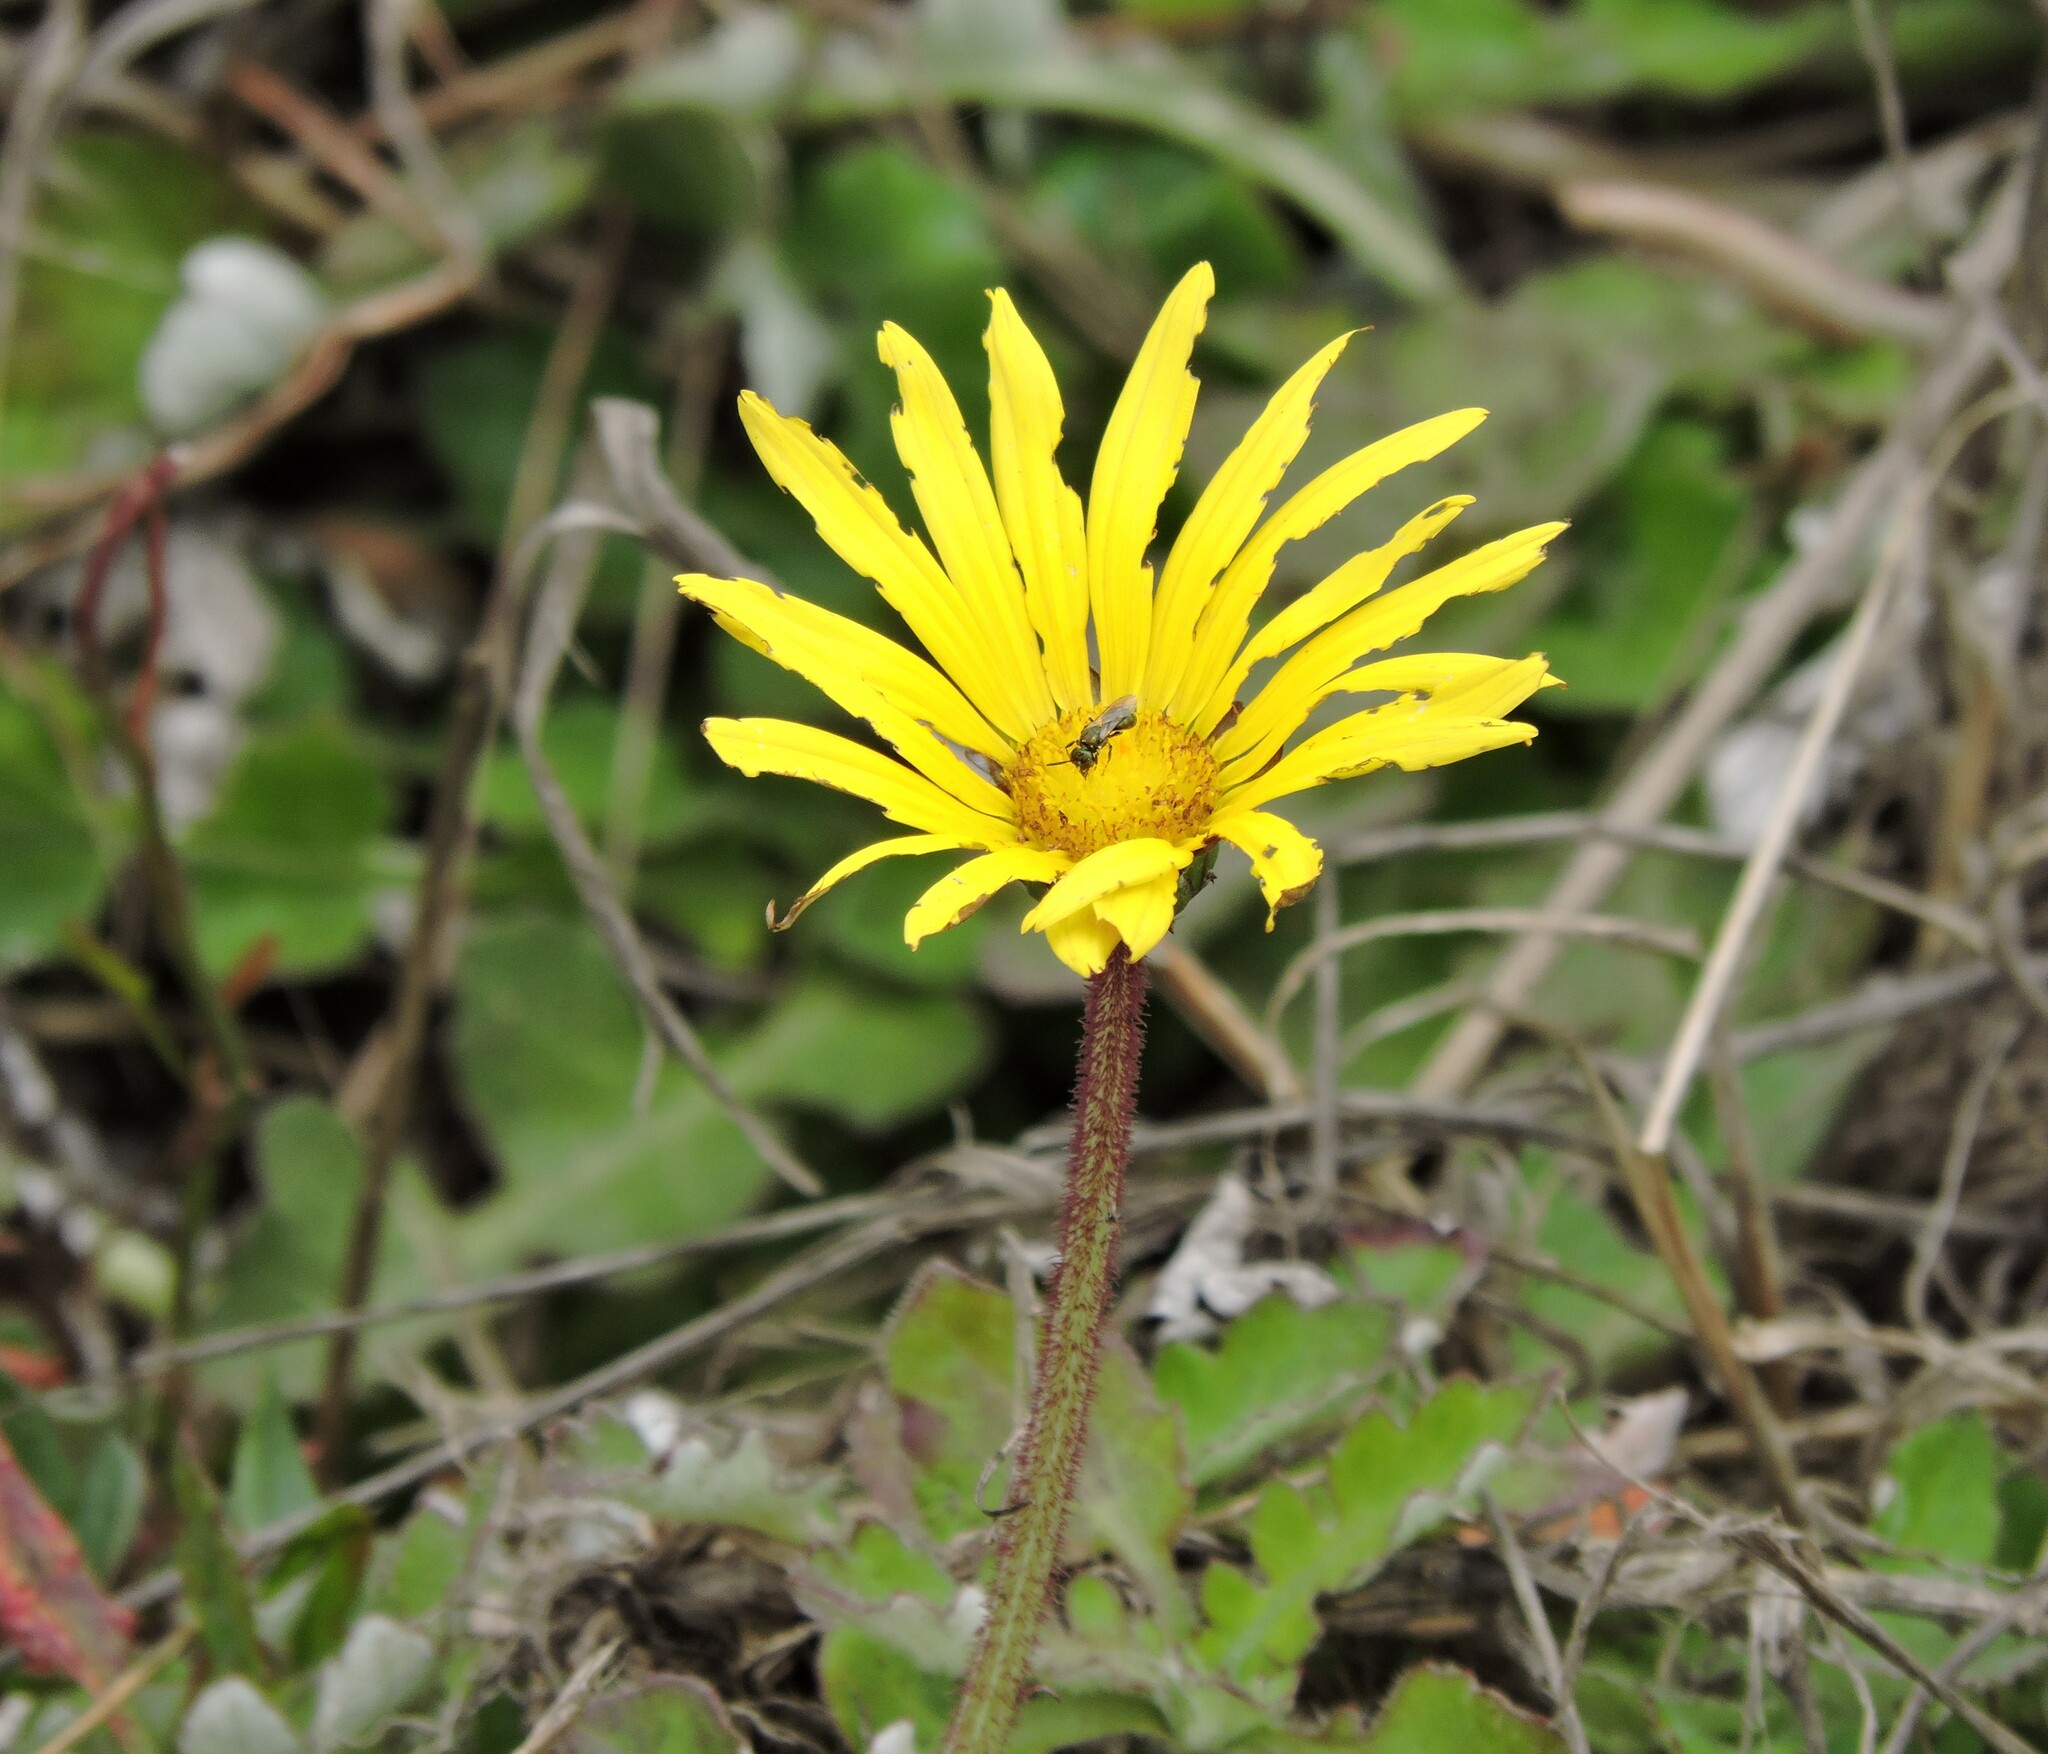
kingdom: Plantae
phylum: Tracheophyta
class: Magnoliopsida
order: Asterales
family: Asteraceae
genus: Arctotheca
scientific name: Arctotheca prostrata
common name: Capeweed
